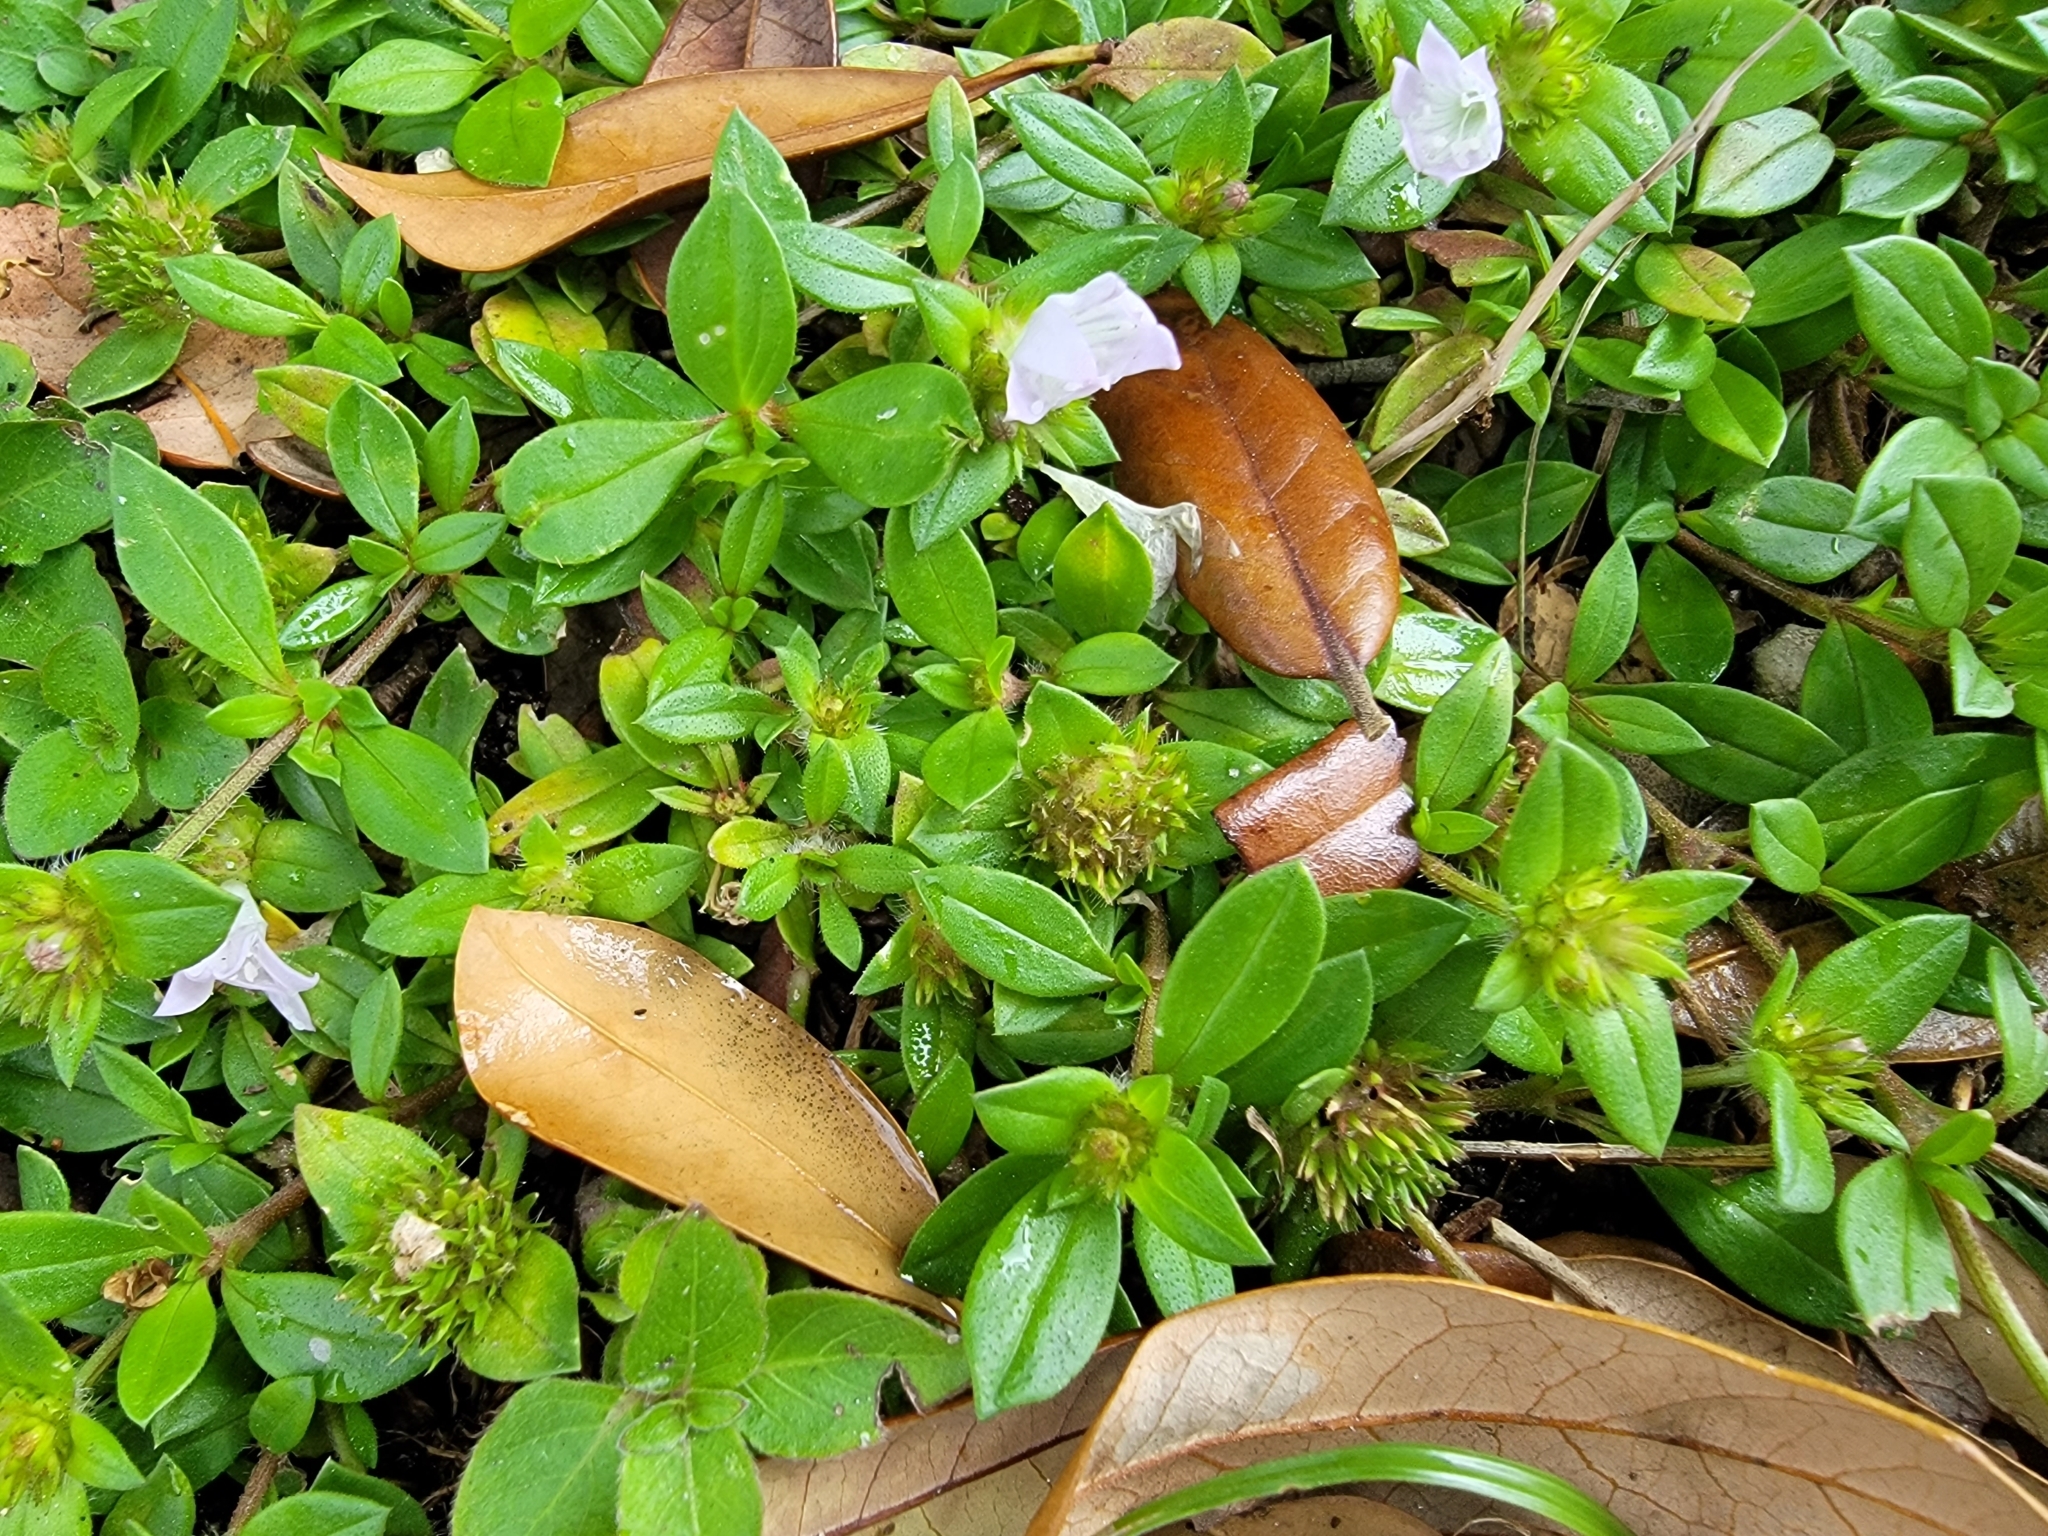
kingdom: Plantae
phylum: Tracheophyta
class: Magnoliopsida
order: Gentianales
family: Rubiaceae
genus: Richardia
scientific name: Richardia grandiflora
